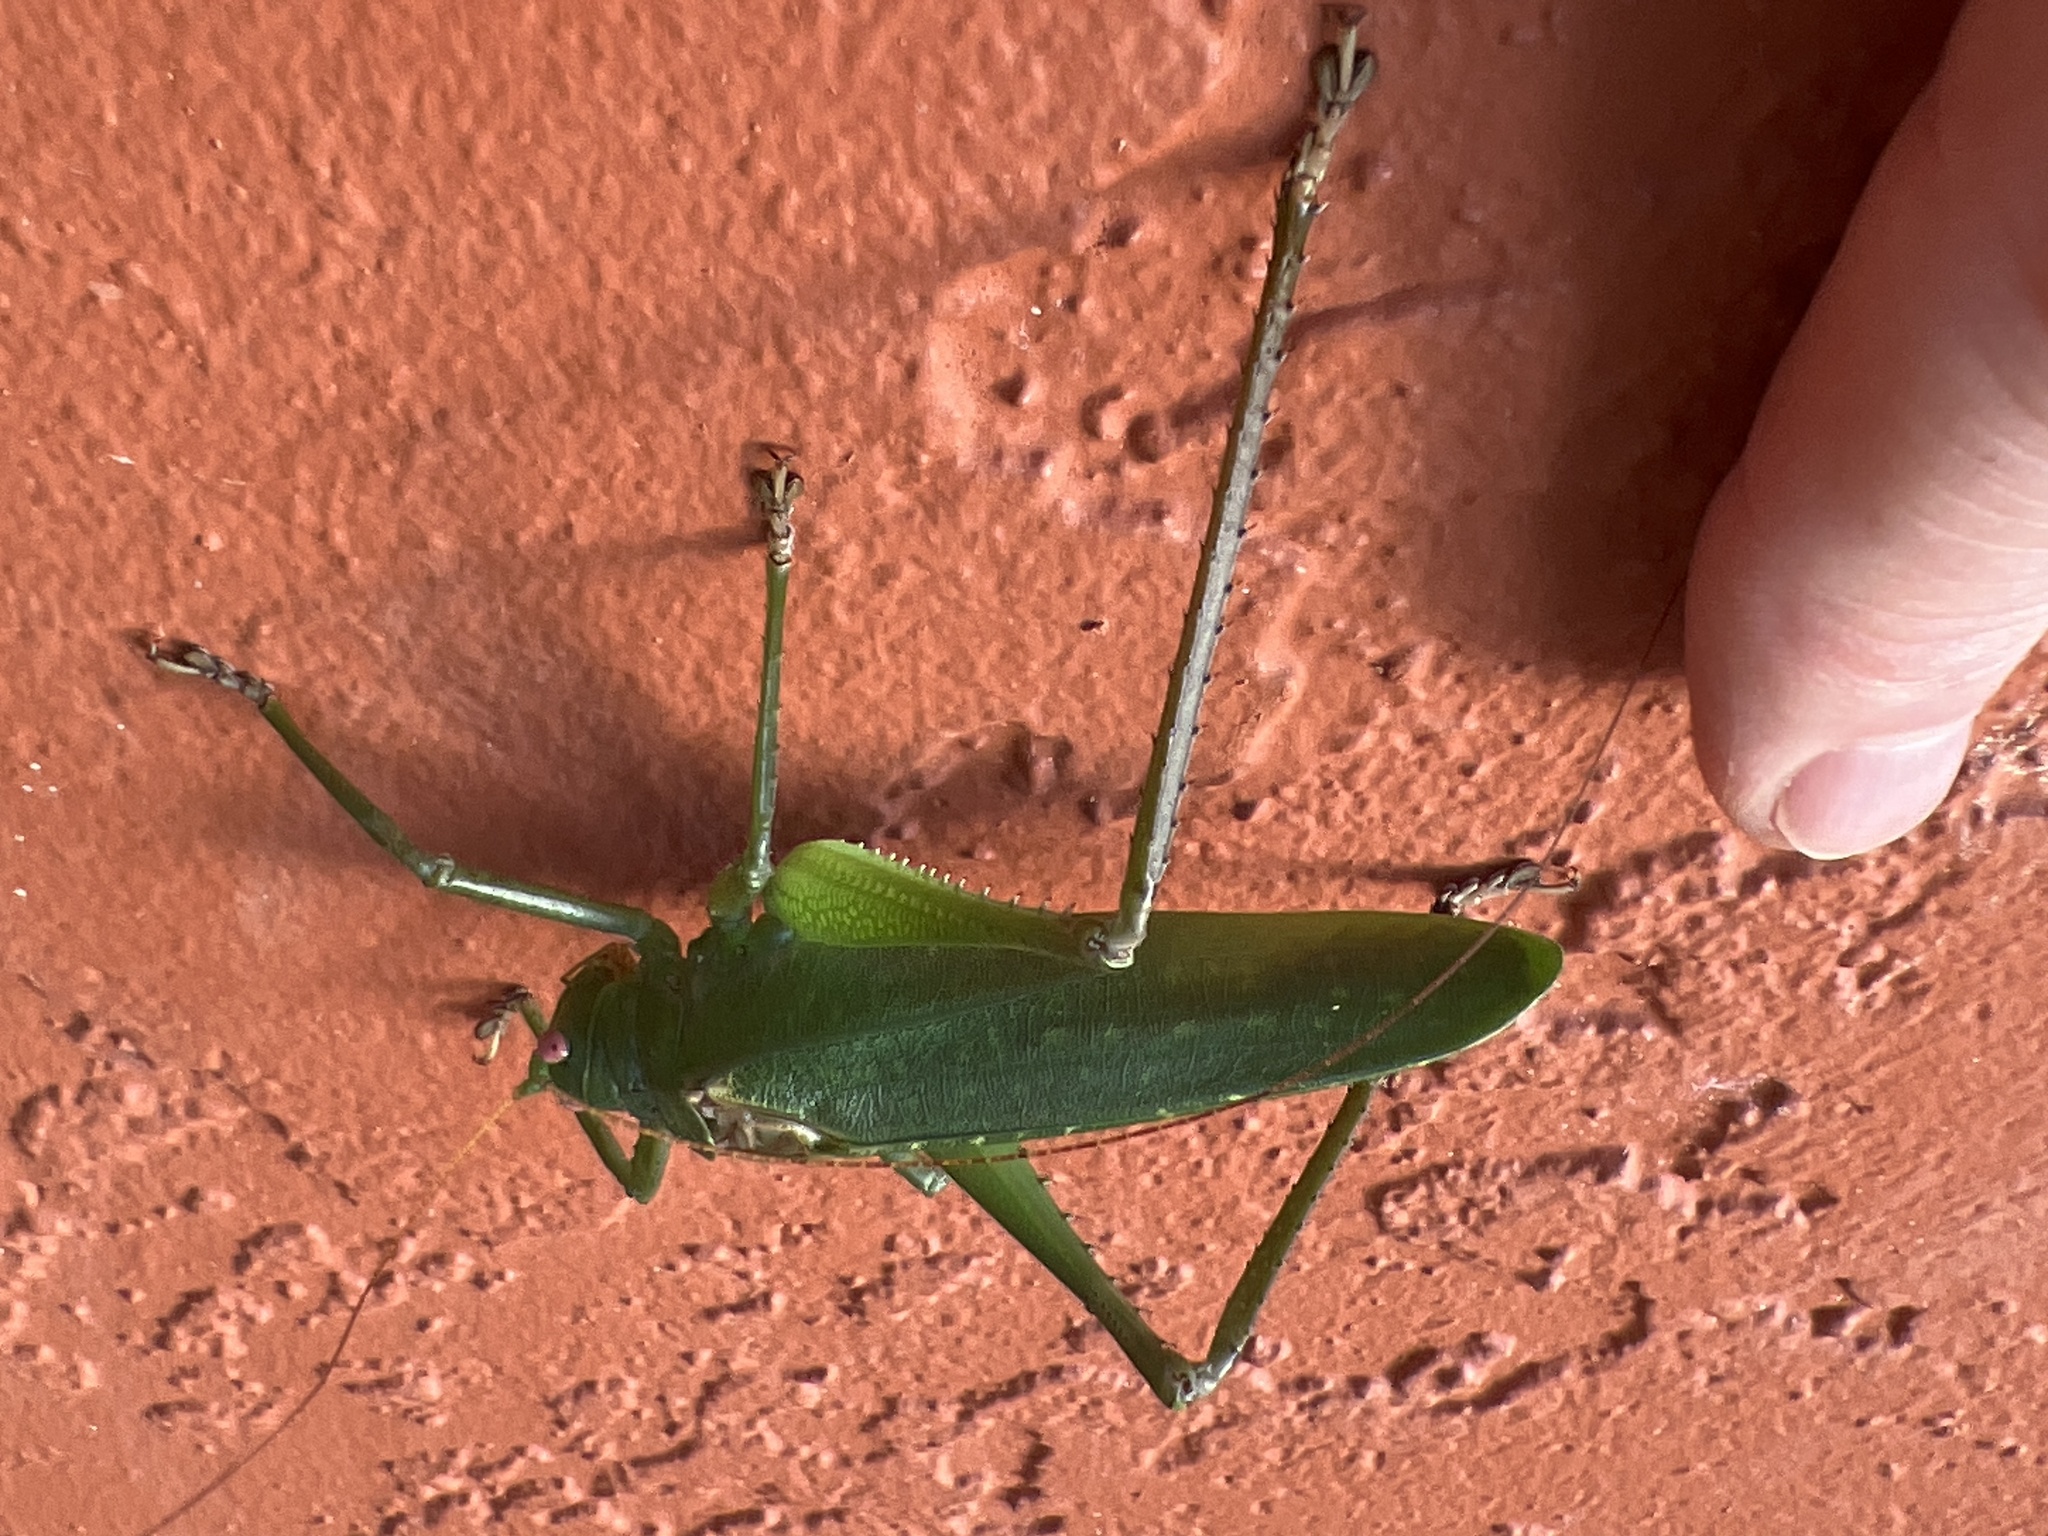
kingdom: Animalia
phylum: Arthropoda
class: Insecta
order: Orthoptera
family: Tettigoniidae
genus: Diophanes
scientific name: Diophanes rosescens
